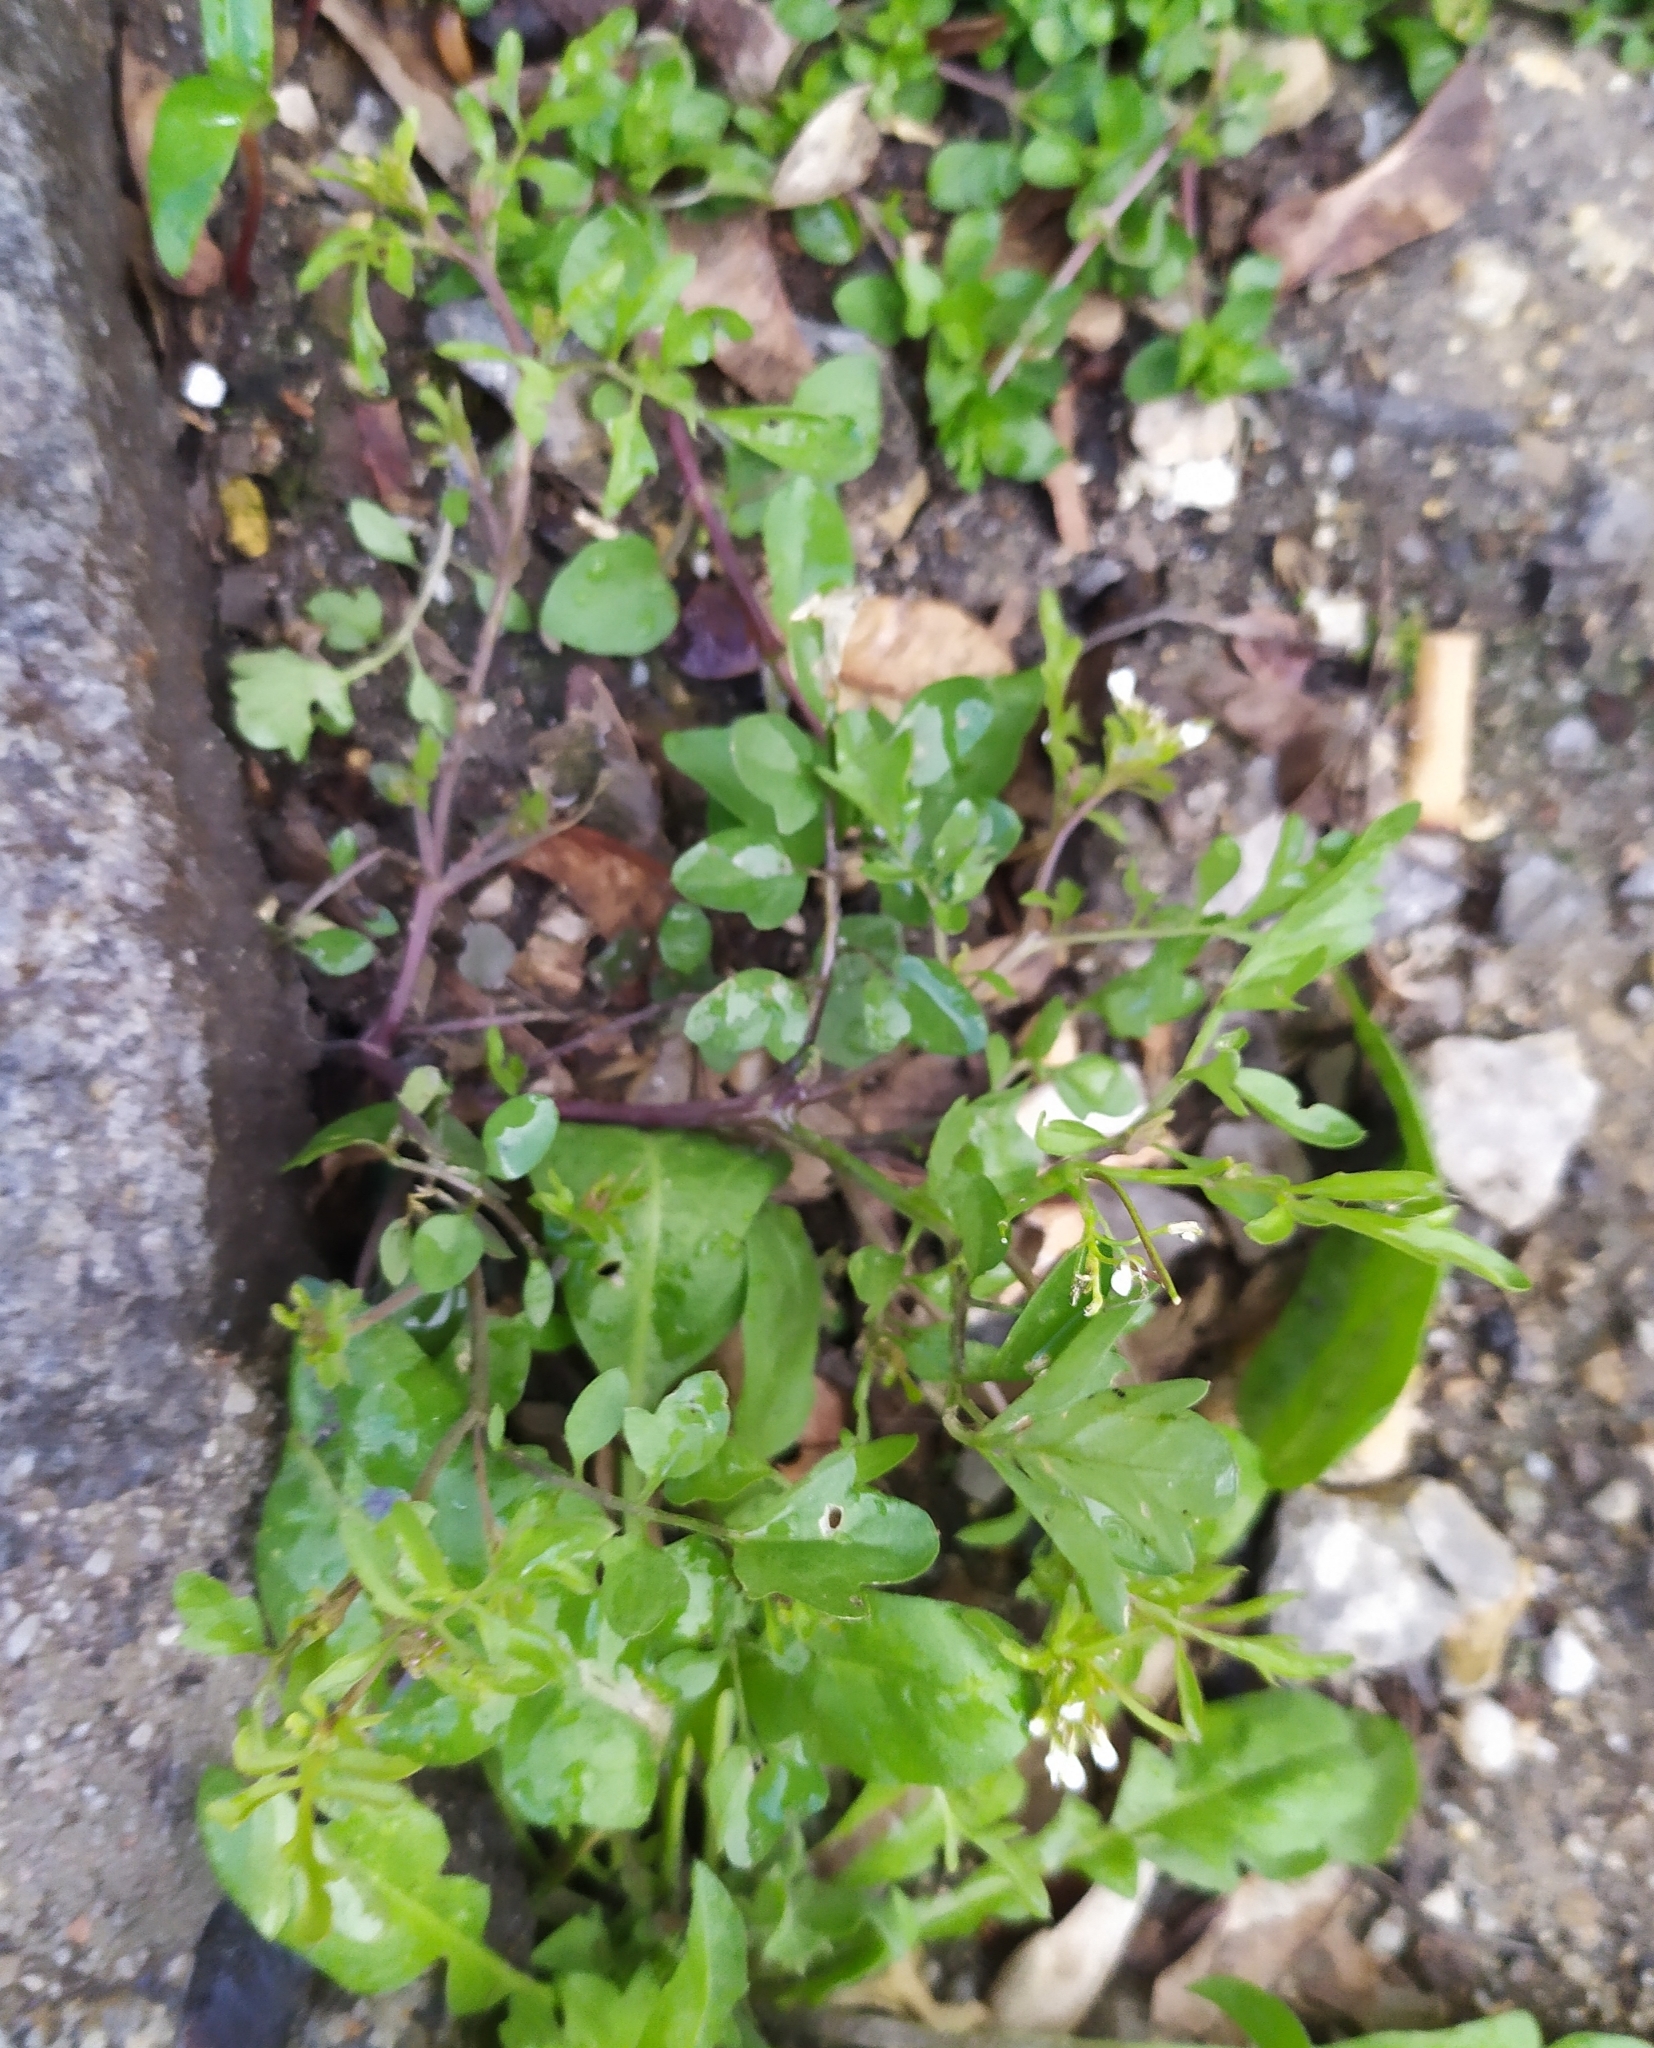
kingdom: Plantae
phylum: Tracheophyta
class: Magnoliopsida
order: Brassicales
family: Brassicaceae
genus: Cardamine
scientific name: Cardamine occulta
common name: Asian wavy bittercress
